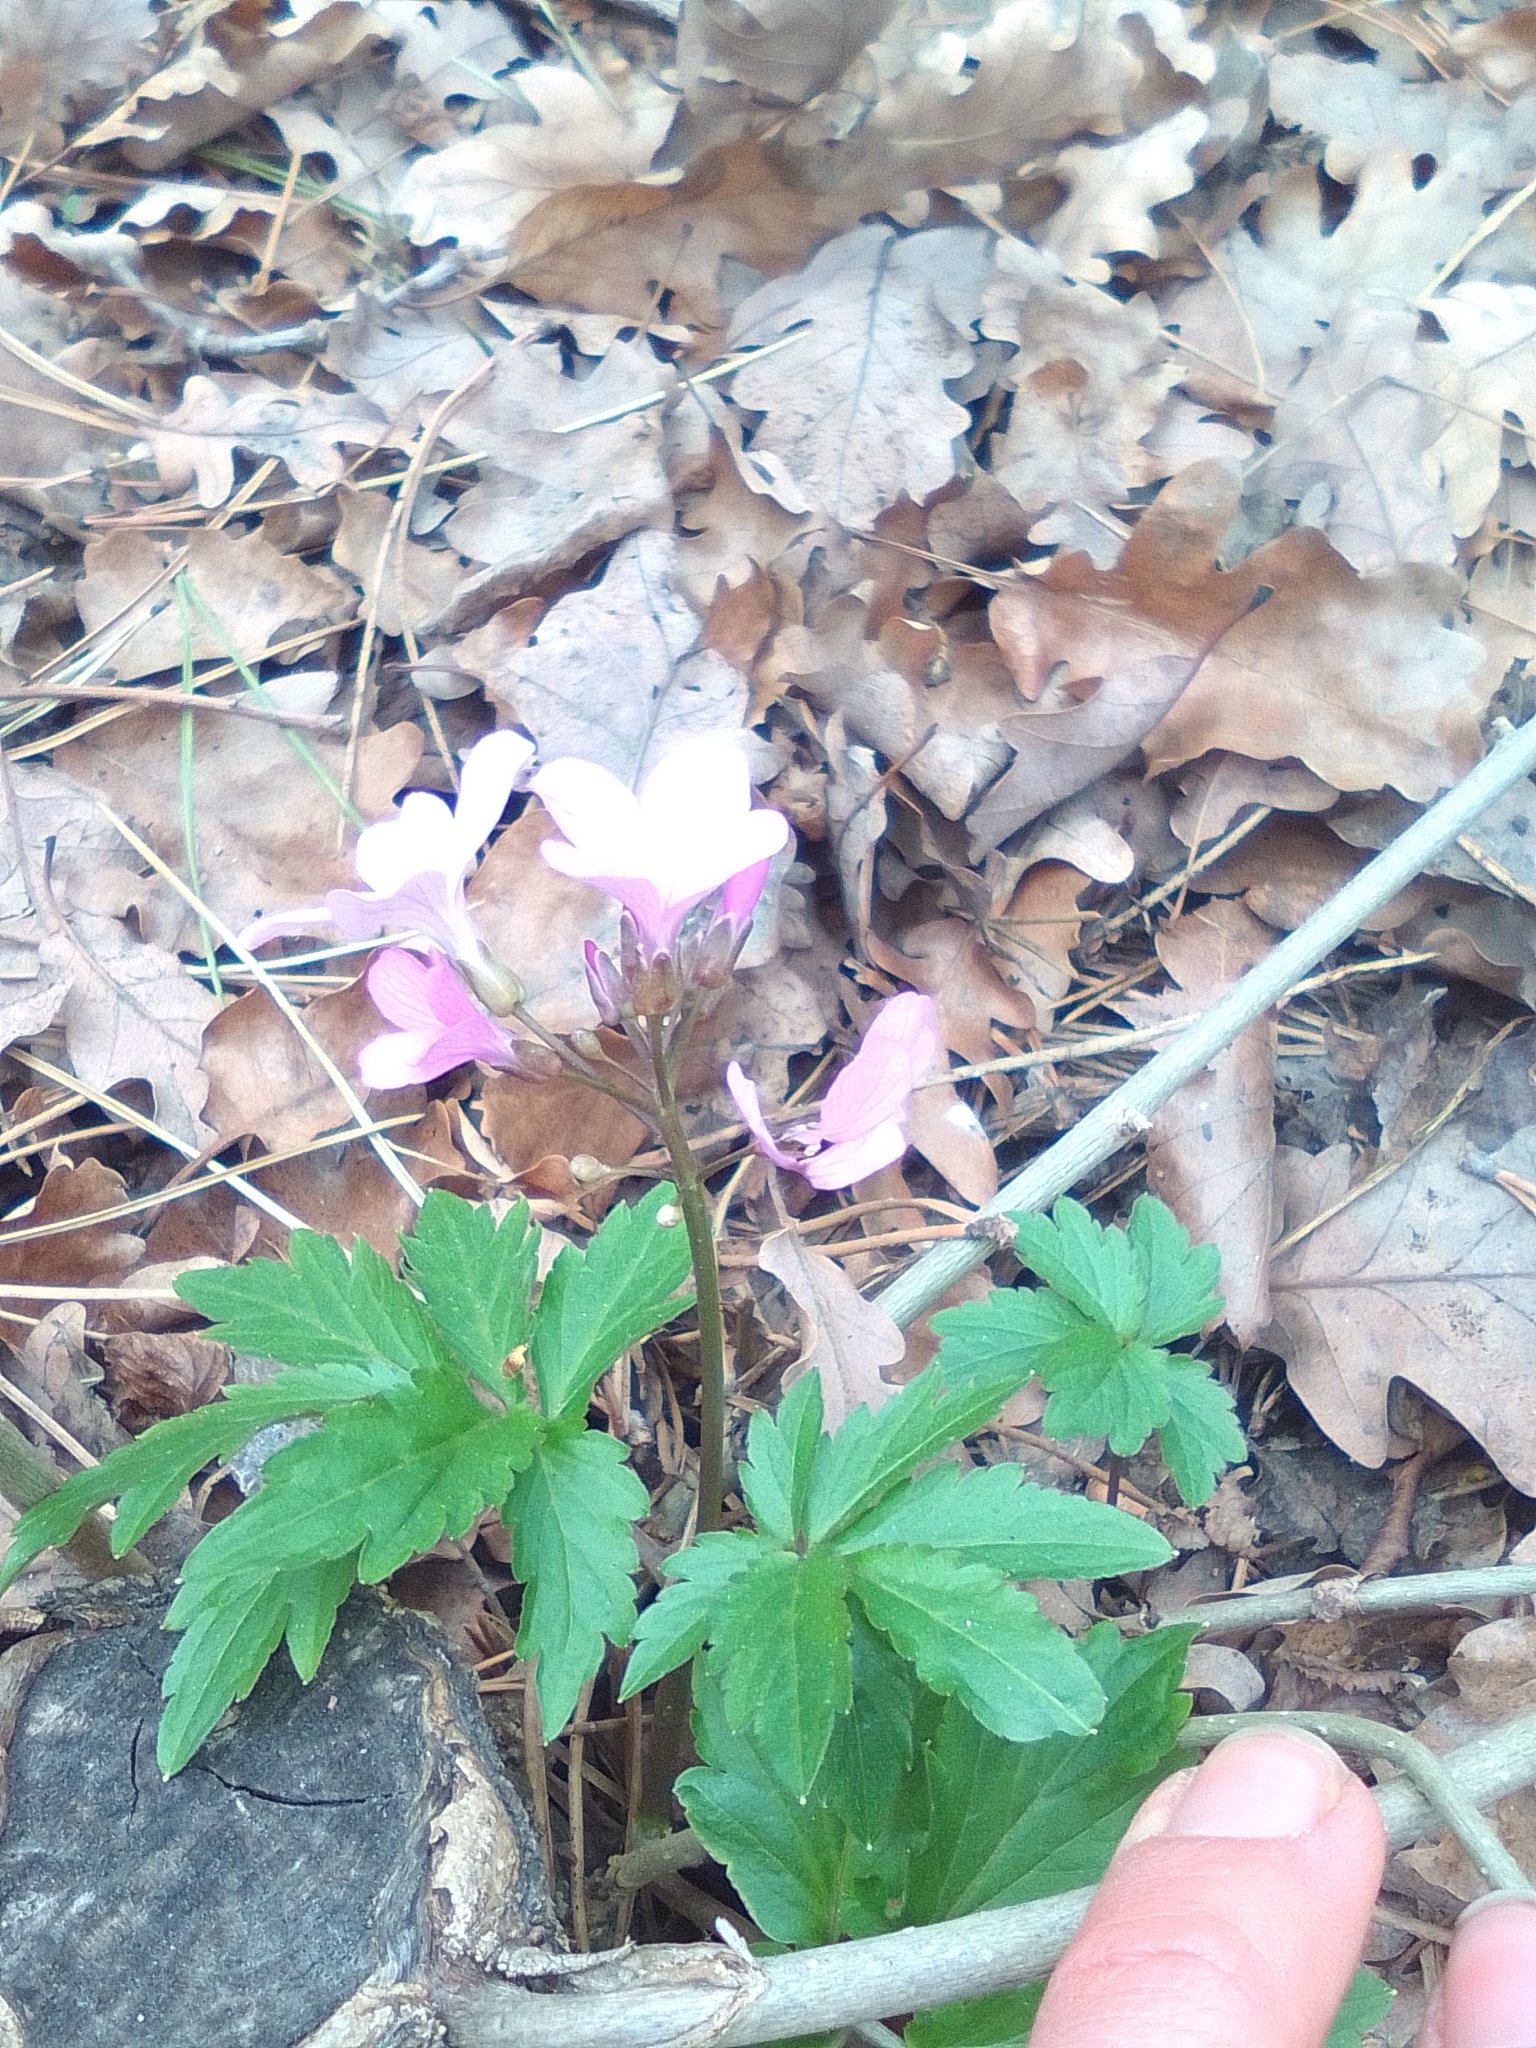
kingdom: Plantae
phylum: Tracheophyta
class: Magnoliopsida
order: Brassicales
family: Brassicaceae
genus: Cardamine
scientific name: Cardamine quinquefolia
